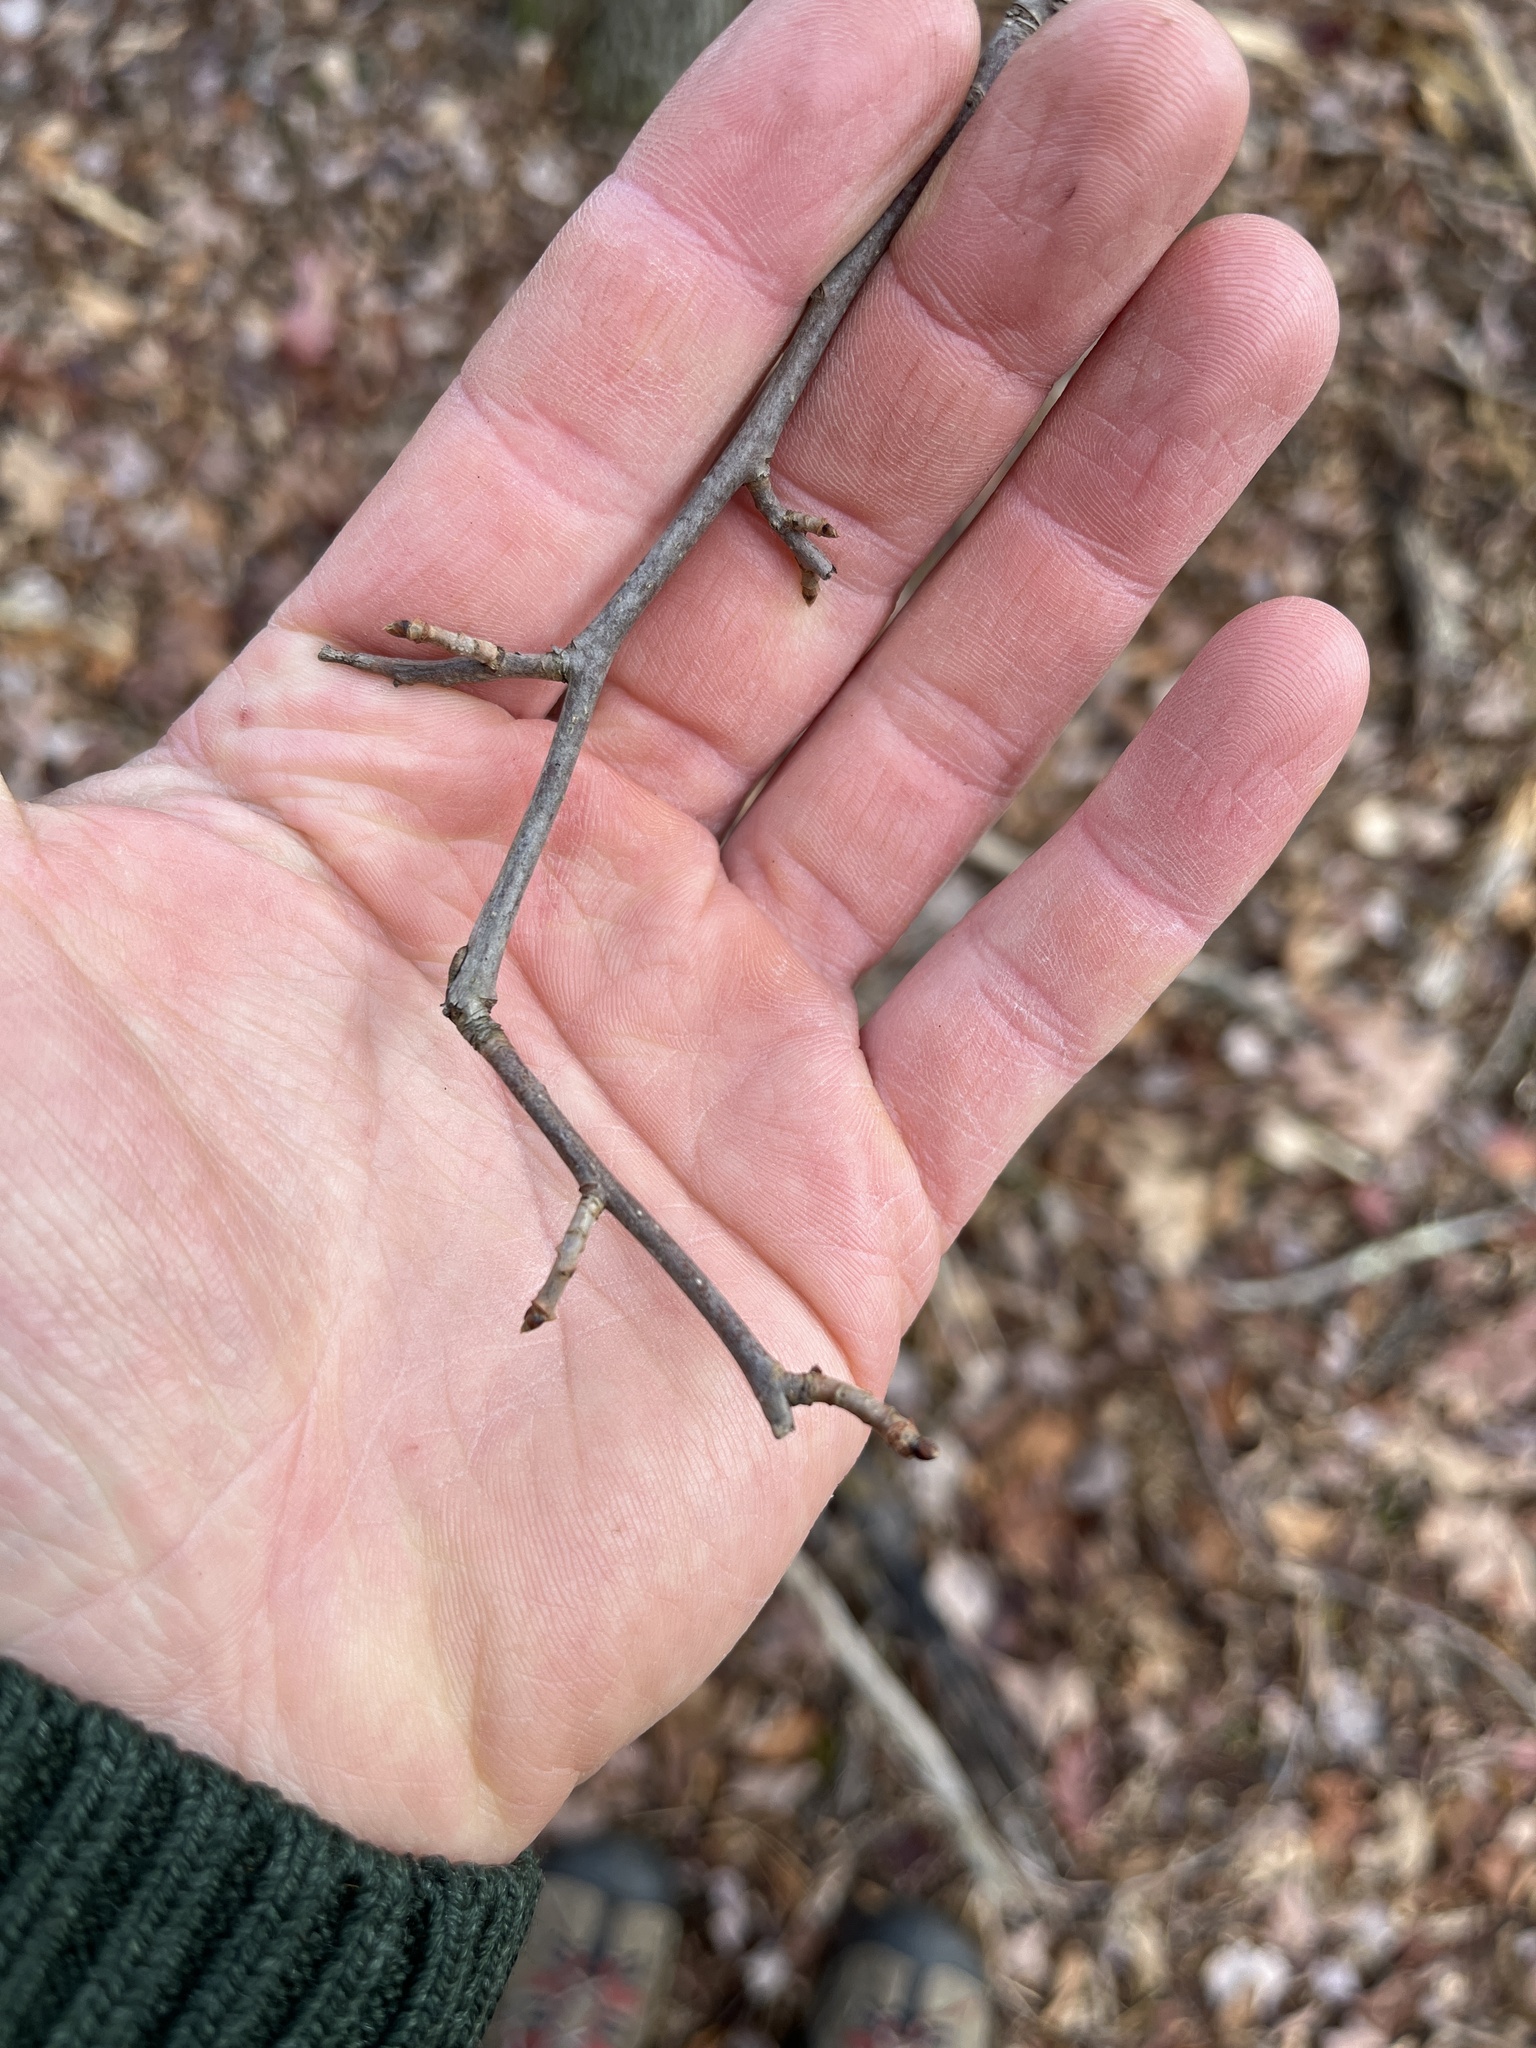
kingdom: Plantae
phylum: Tracheophyta
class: Magnoliopsida
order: Cornales
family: Nyssaceae
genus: Nyssa
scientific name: Nyssa sylvatica
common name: Black tupelo
